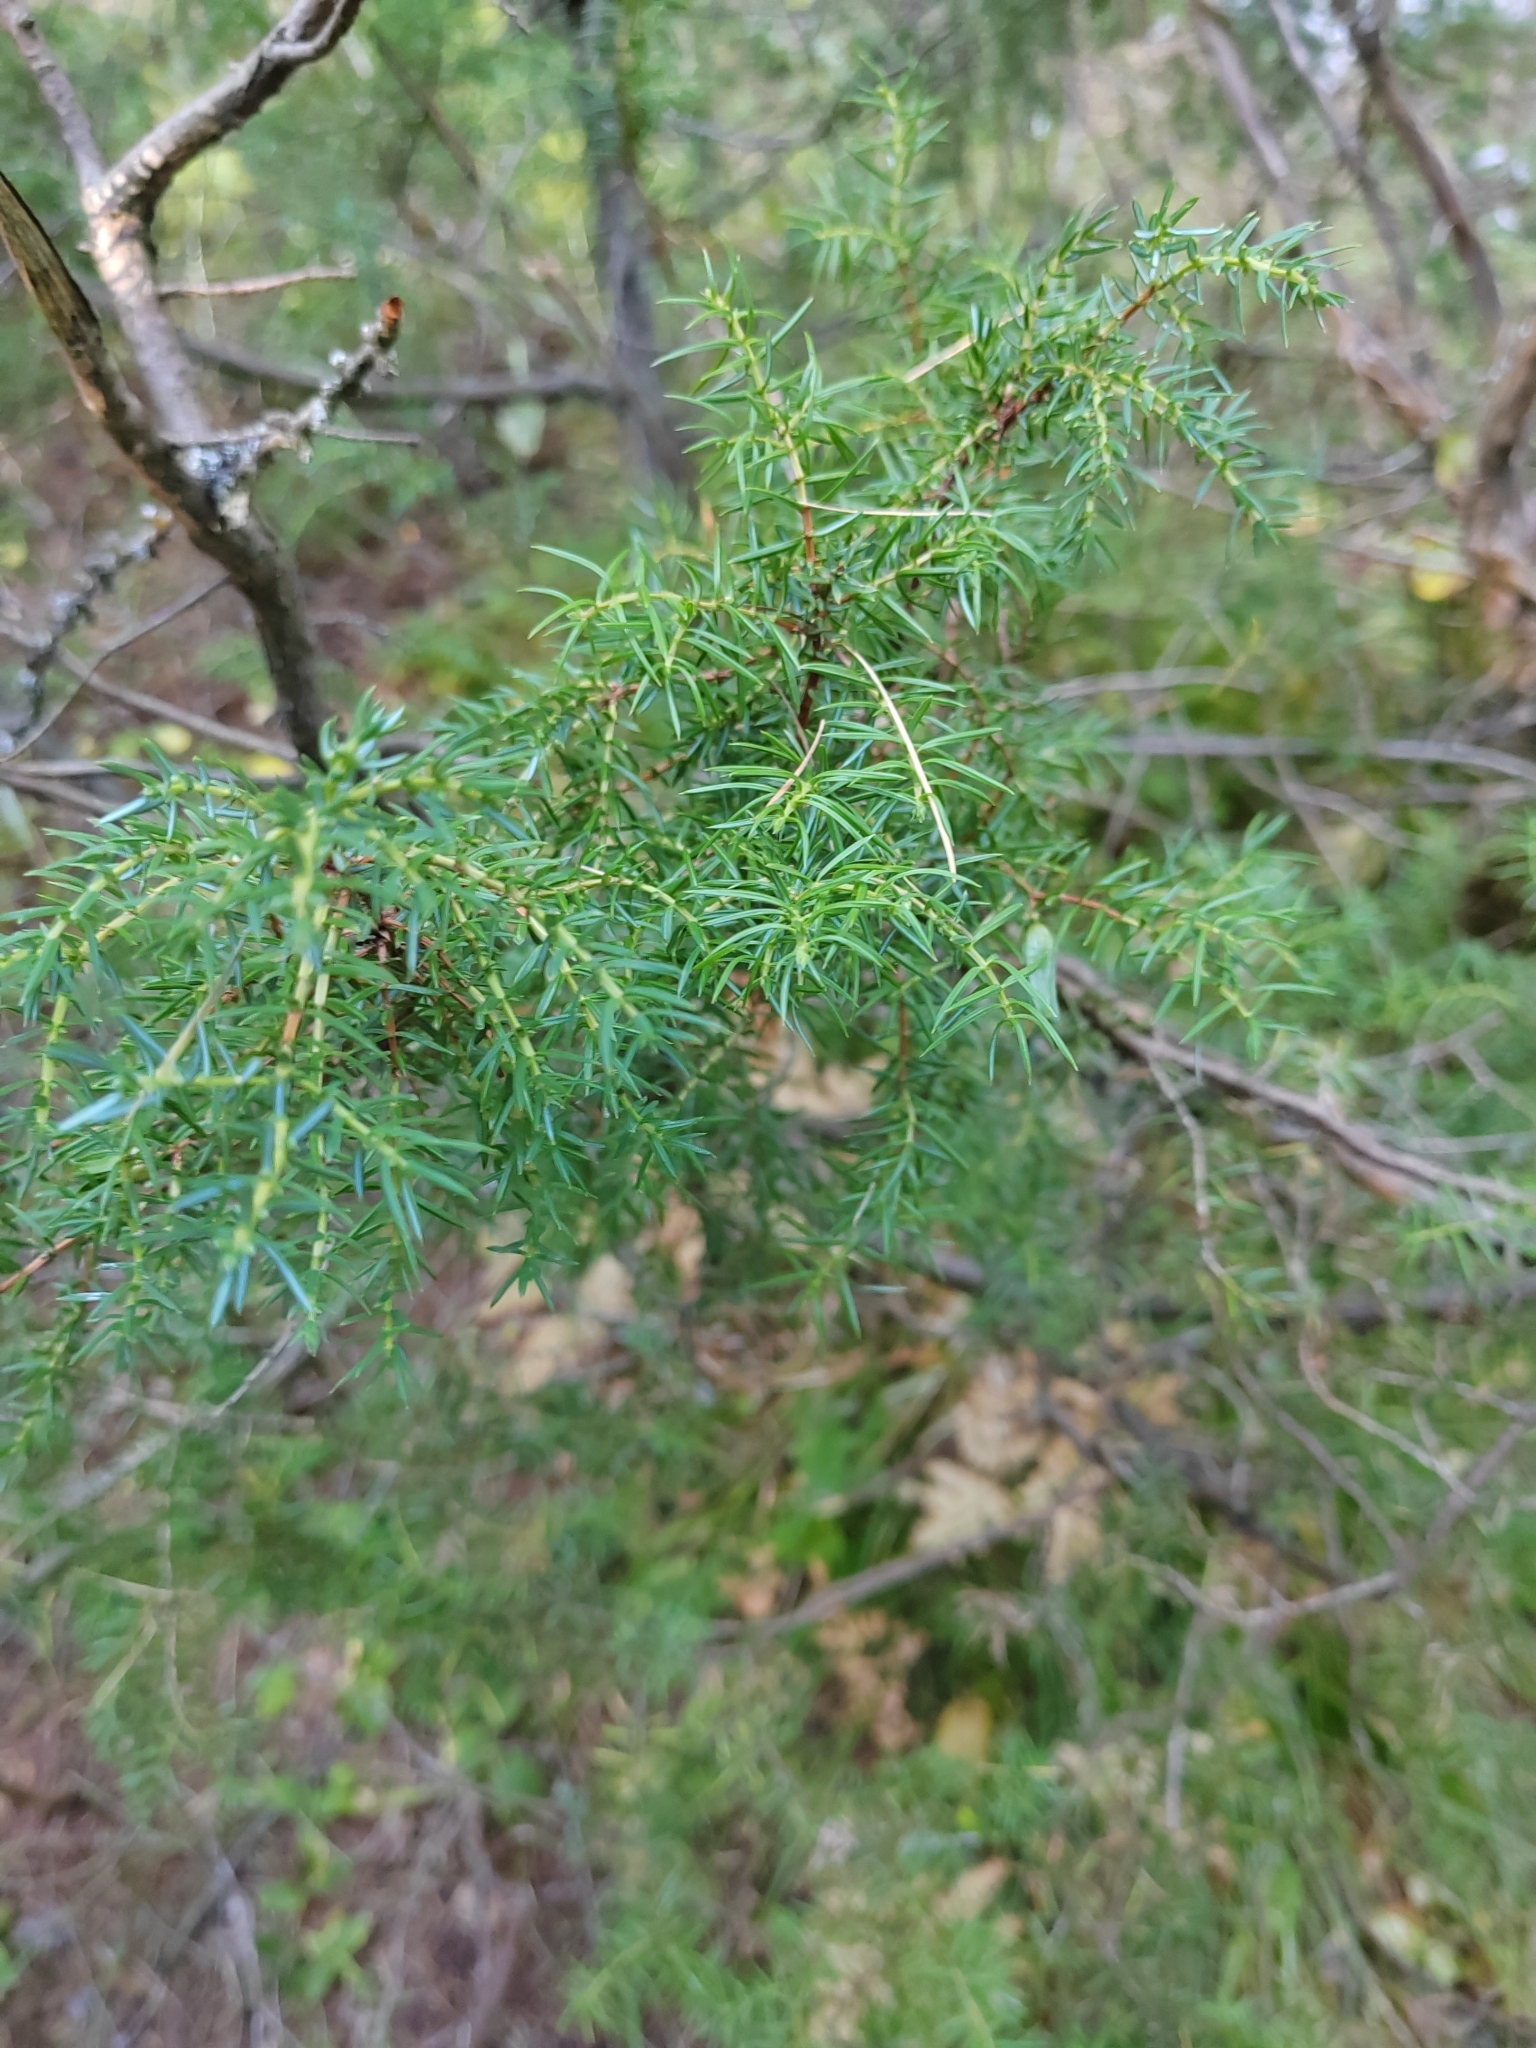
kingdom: Plantae
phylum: Tracheophyta
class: Pinopsida
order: Pinales
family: Cupressaceae
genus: Juniperus
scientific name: Juniperus communis
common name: Common juniper
